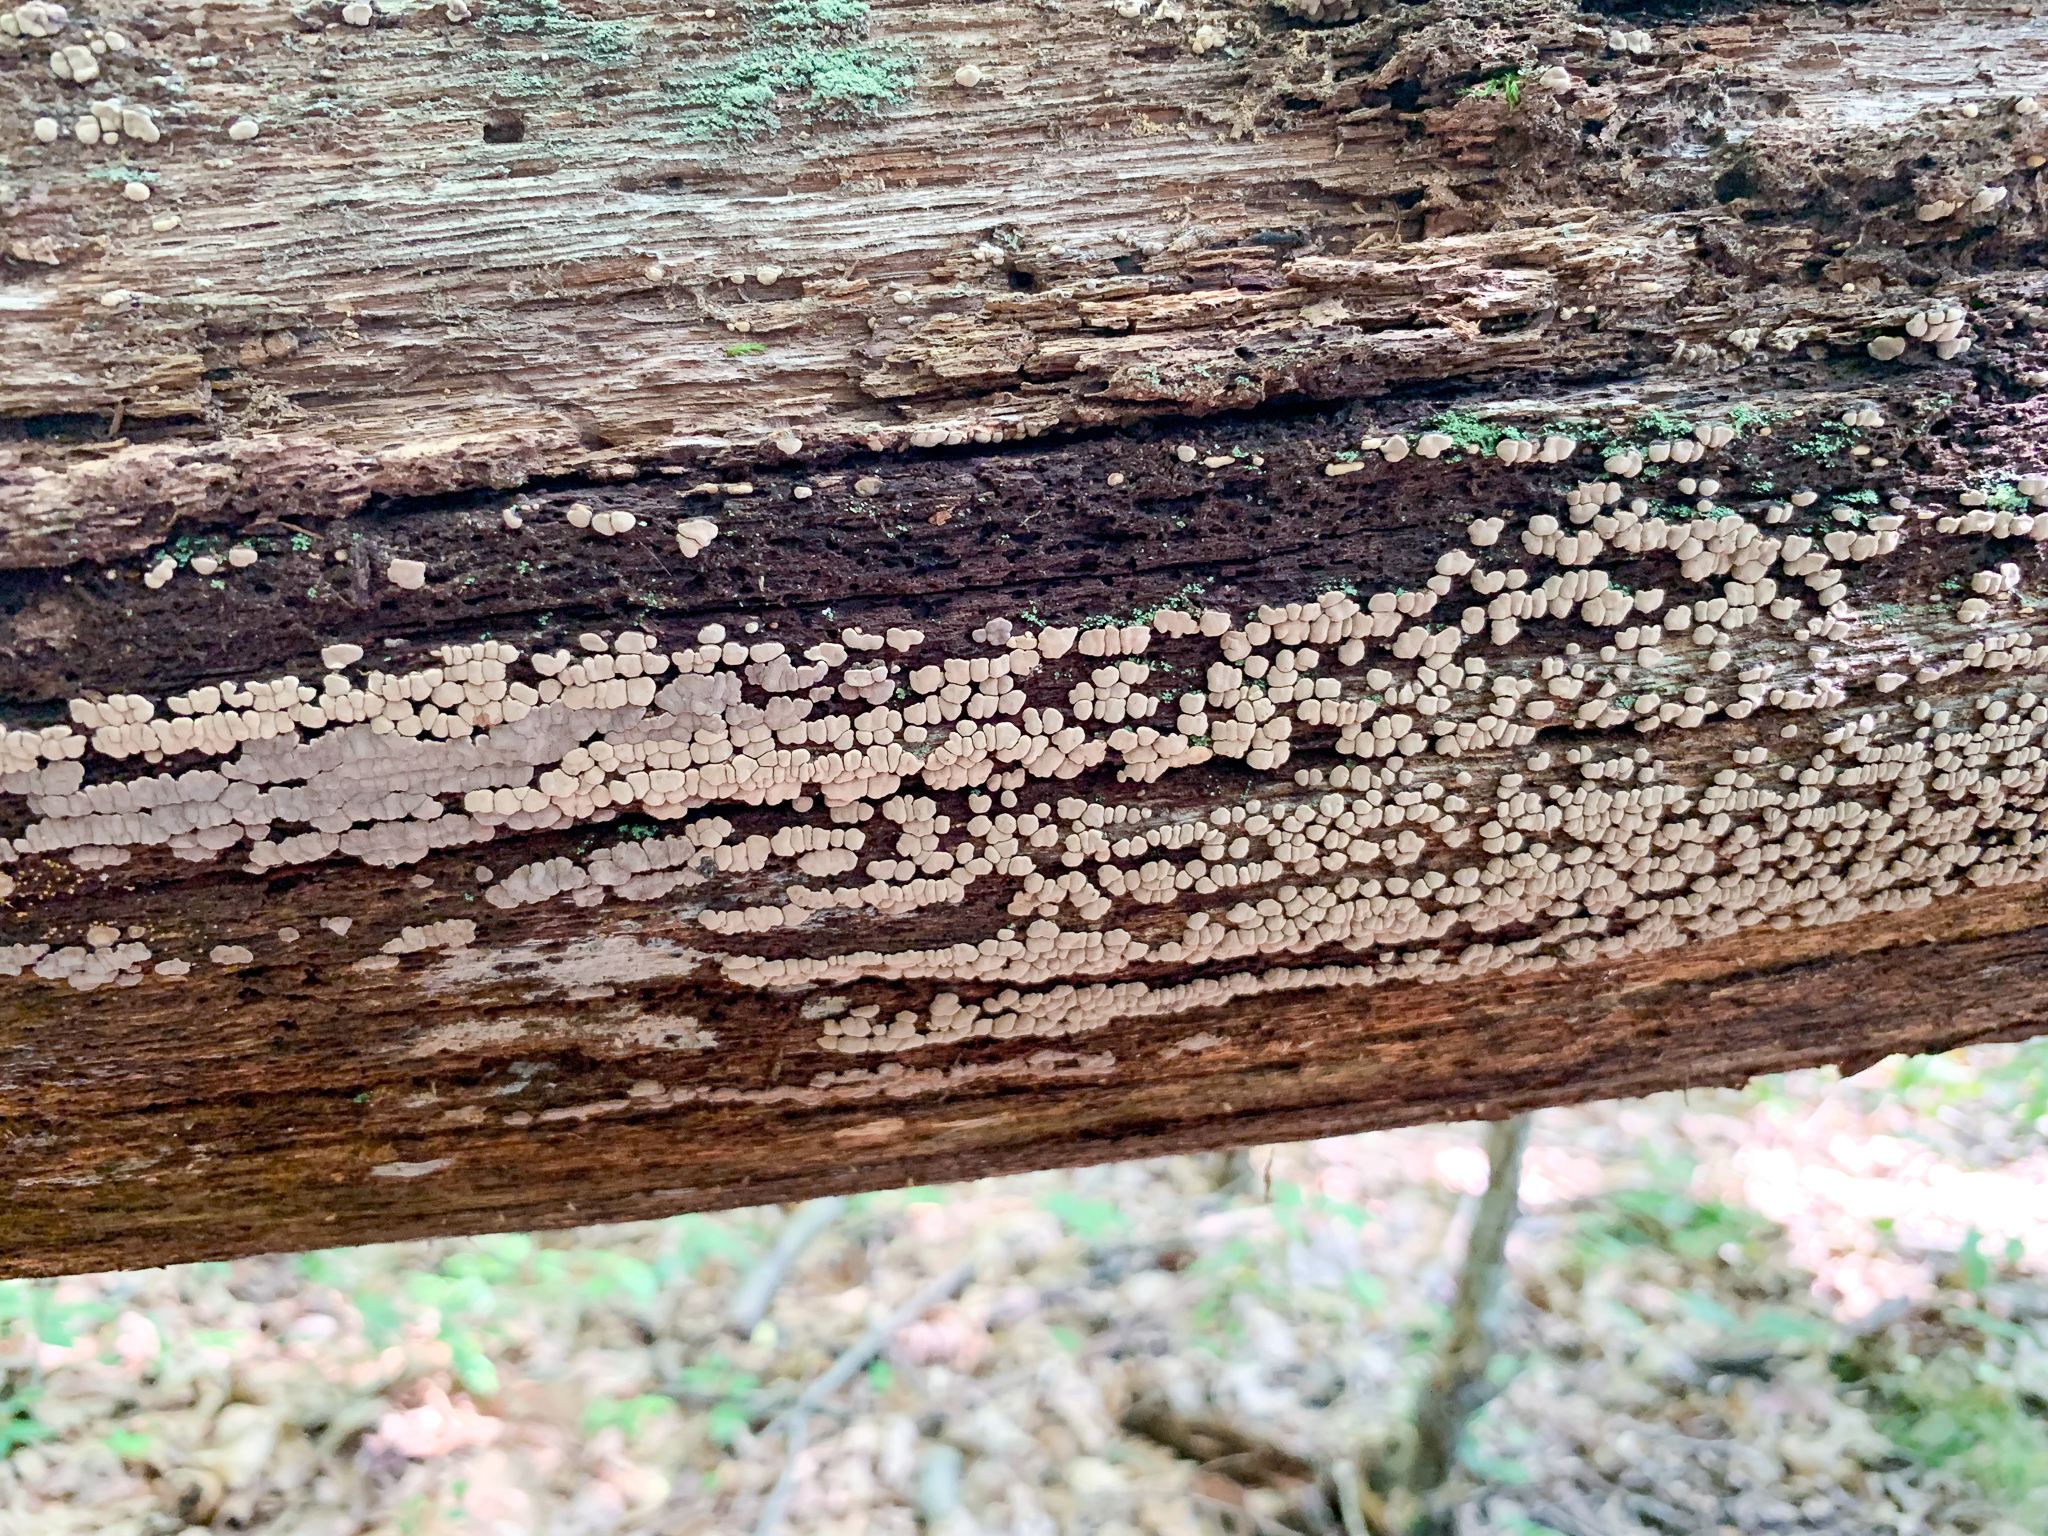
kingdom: Fungi
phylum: Basidiomycota
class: Agaricomycetes
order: Russulales
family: Stereaceae
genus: Xylobolus
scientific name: Xylobolus frustulatus
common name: Ceramic parchment
